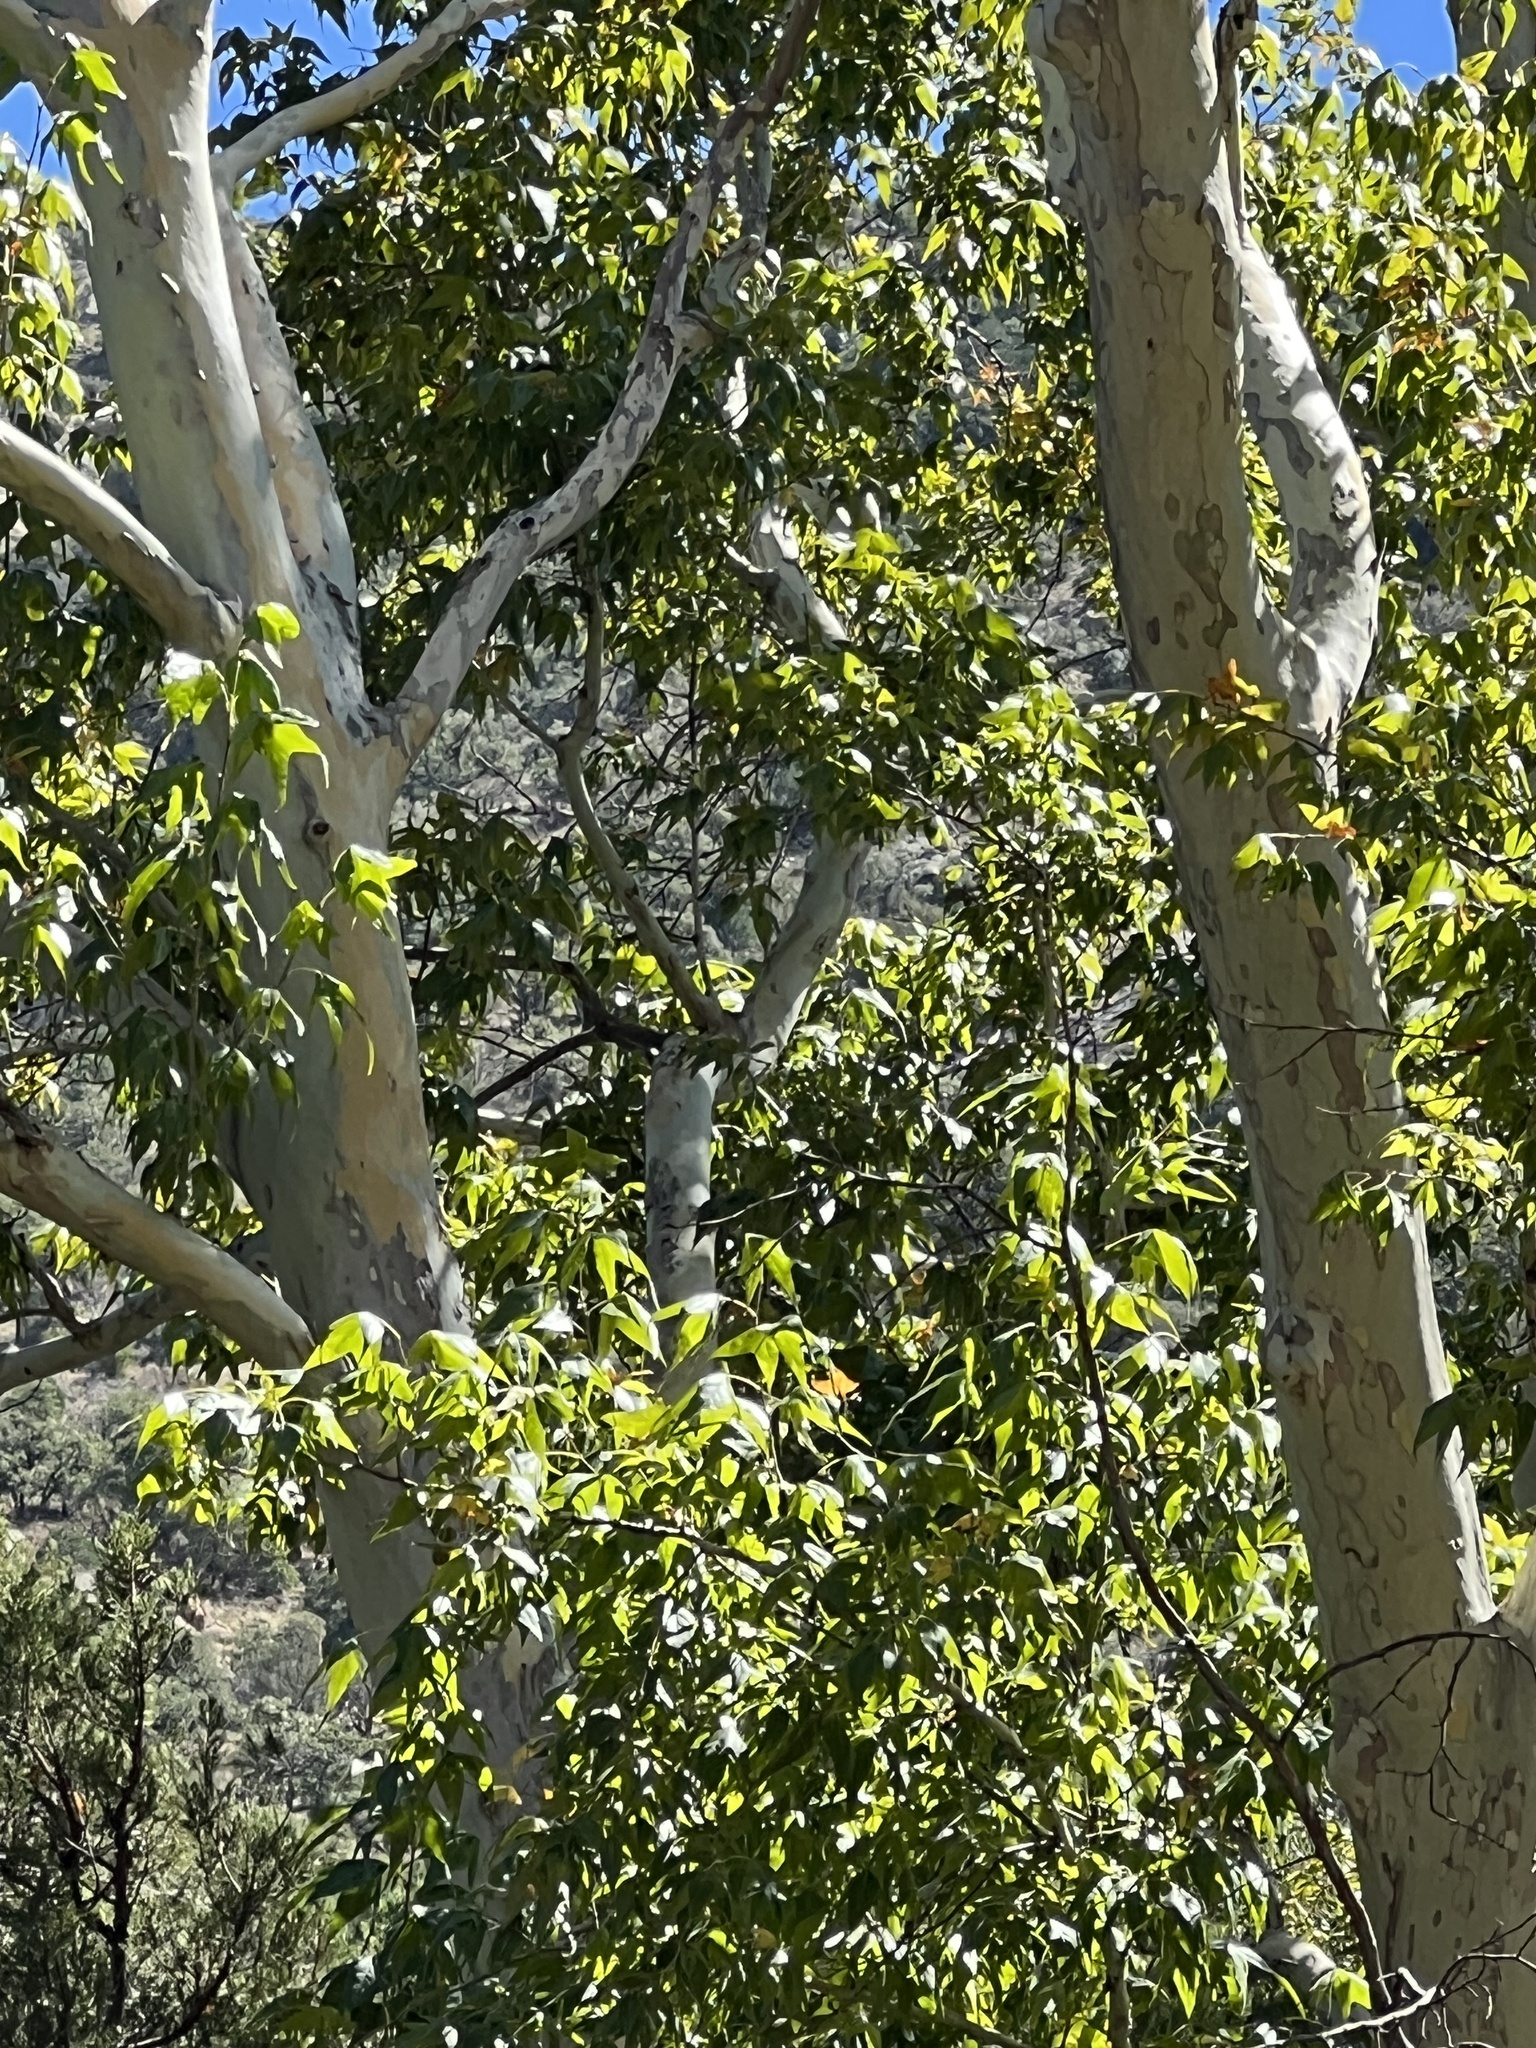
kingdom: Plantae
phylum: Tracheophyta
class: Magnoliopsida
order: Proteales
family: Platanaceae
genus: Platanus
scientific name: Platanus wrightii
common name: Arizona sycamore
